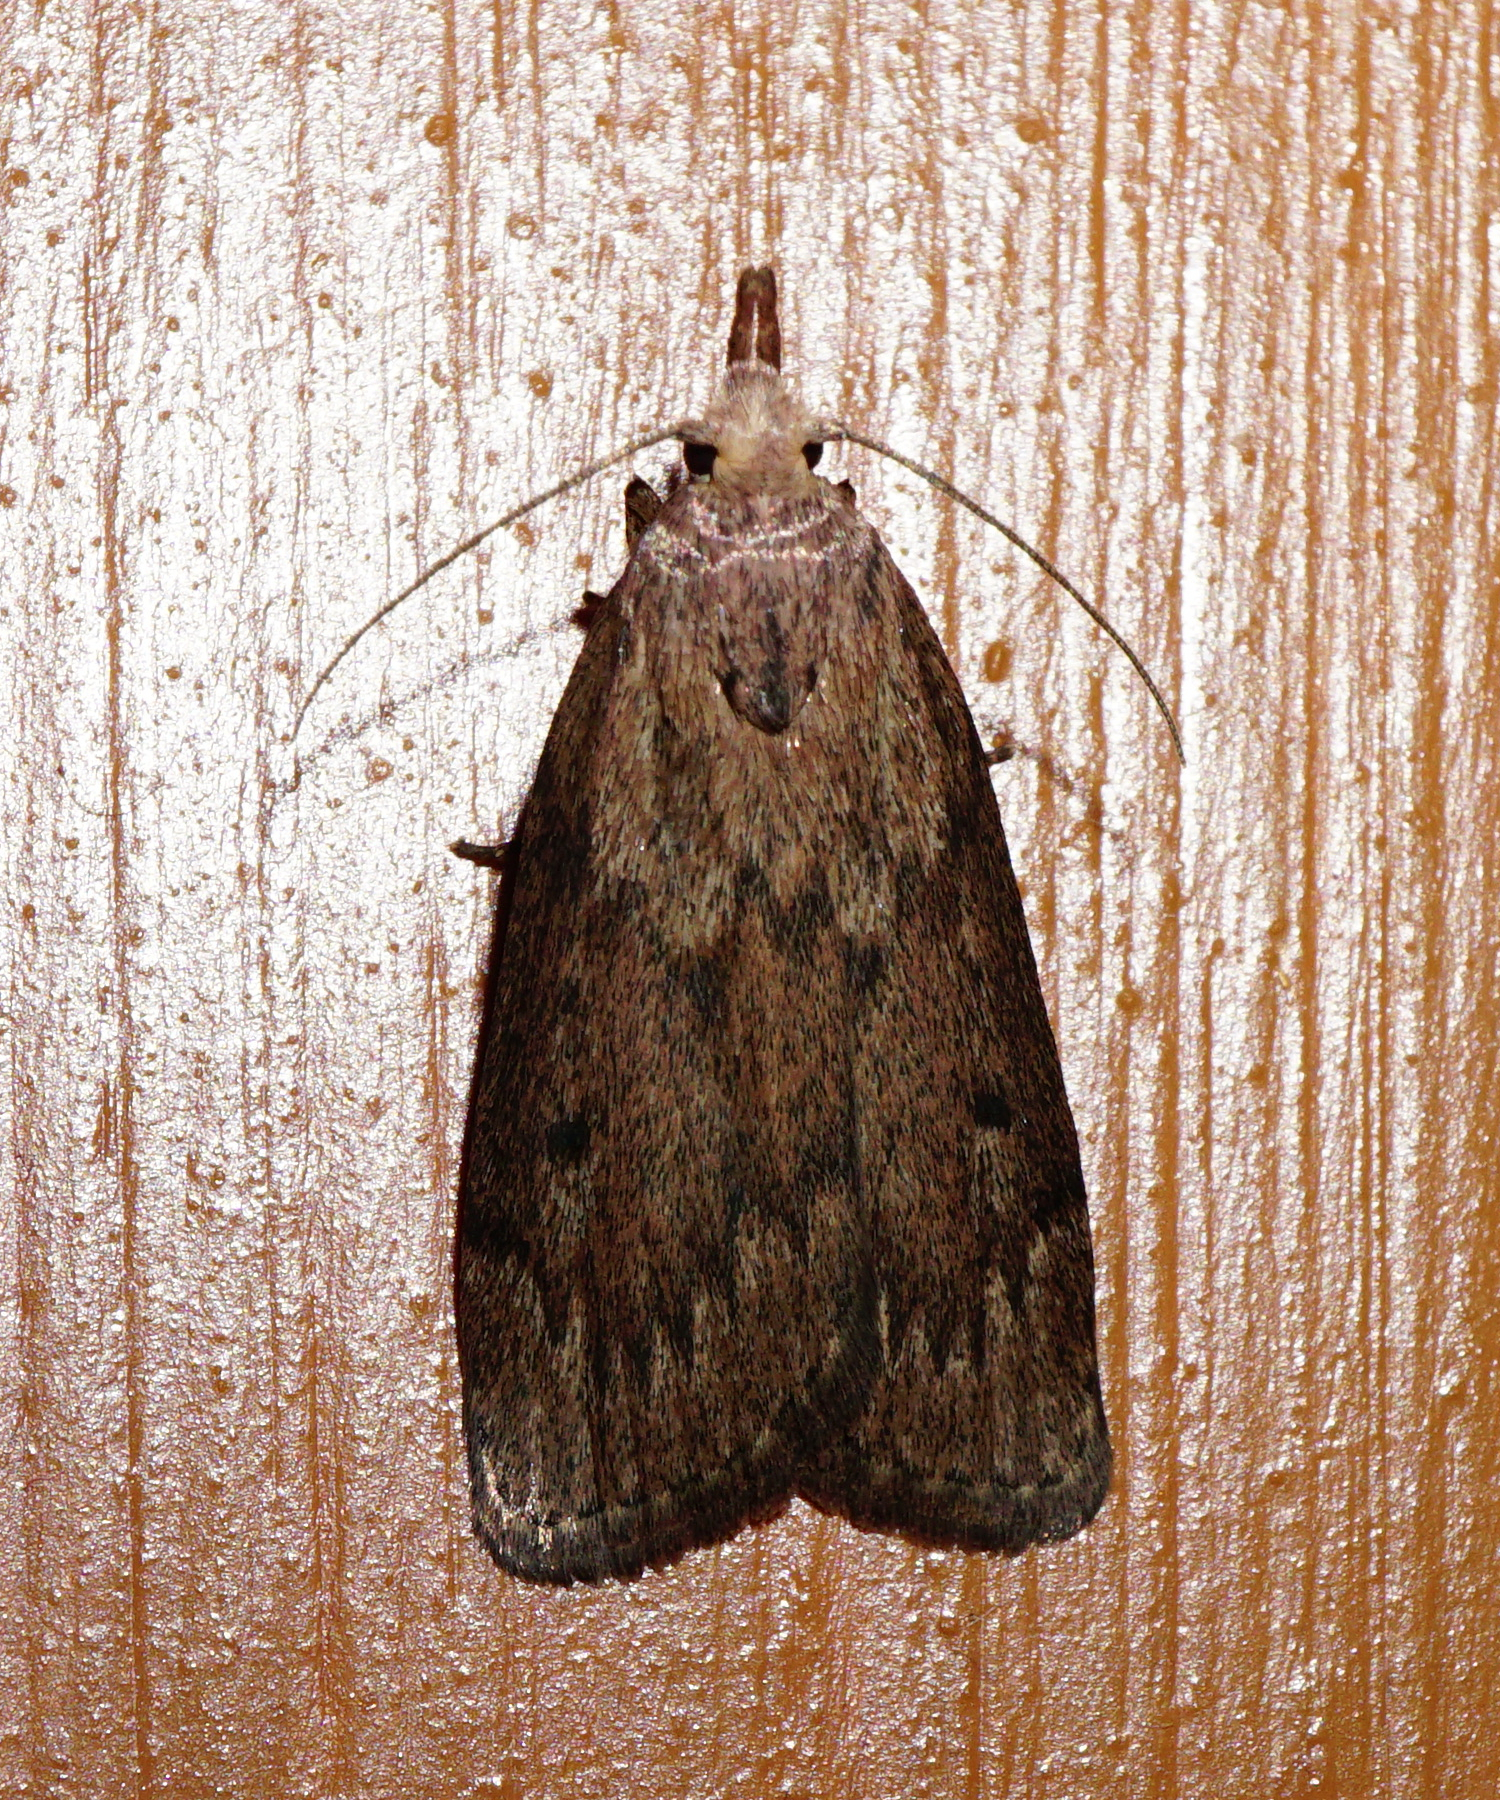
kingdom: Animalia
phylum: Arthropoda
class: Insecta
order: Lepidoptera
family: Pyralidae
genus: Aphomia
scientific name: Aphomia sociella
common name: Bee moth
